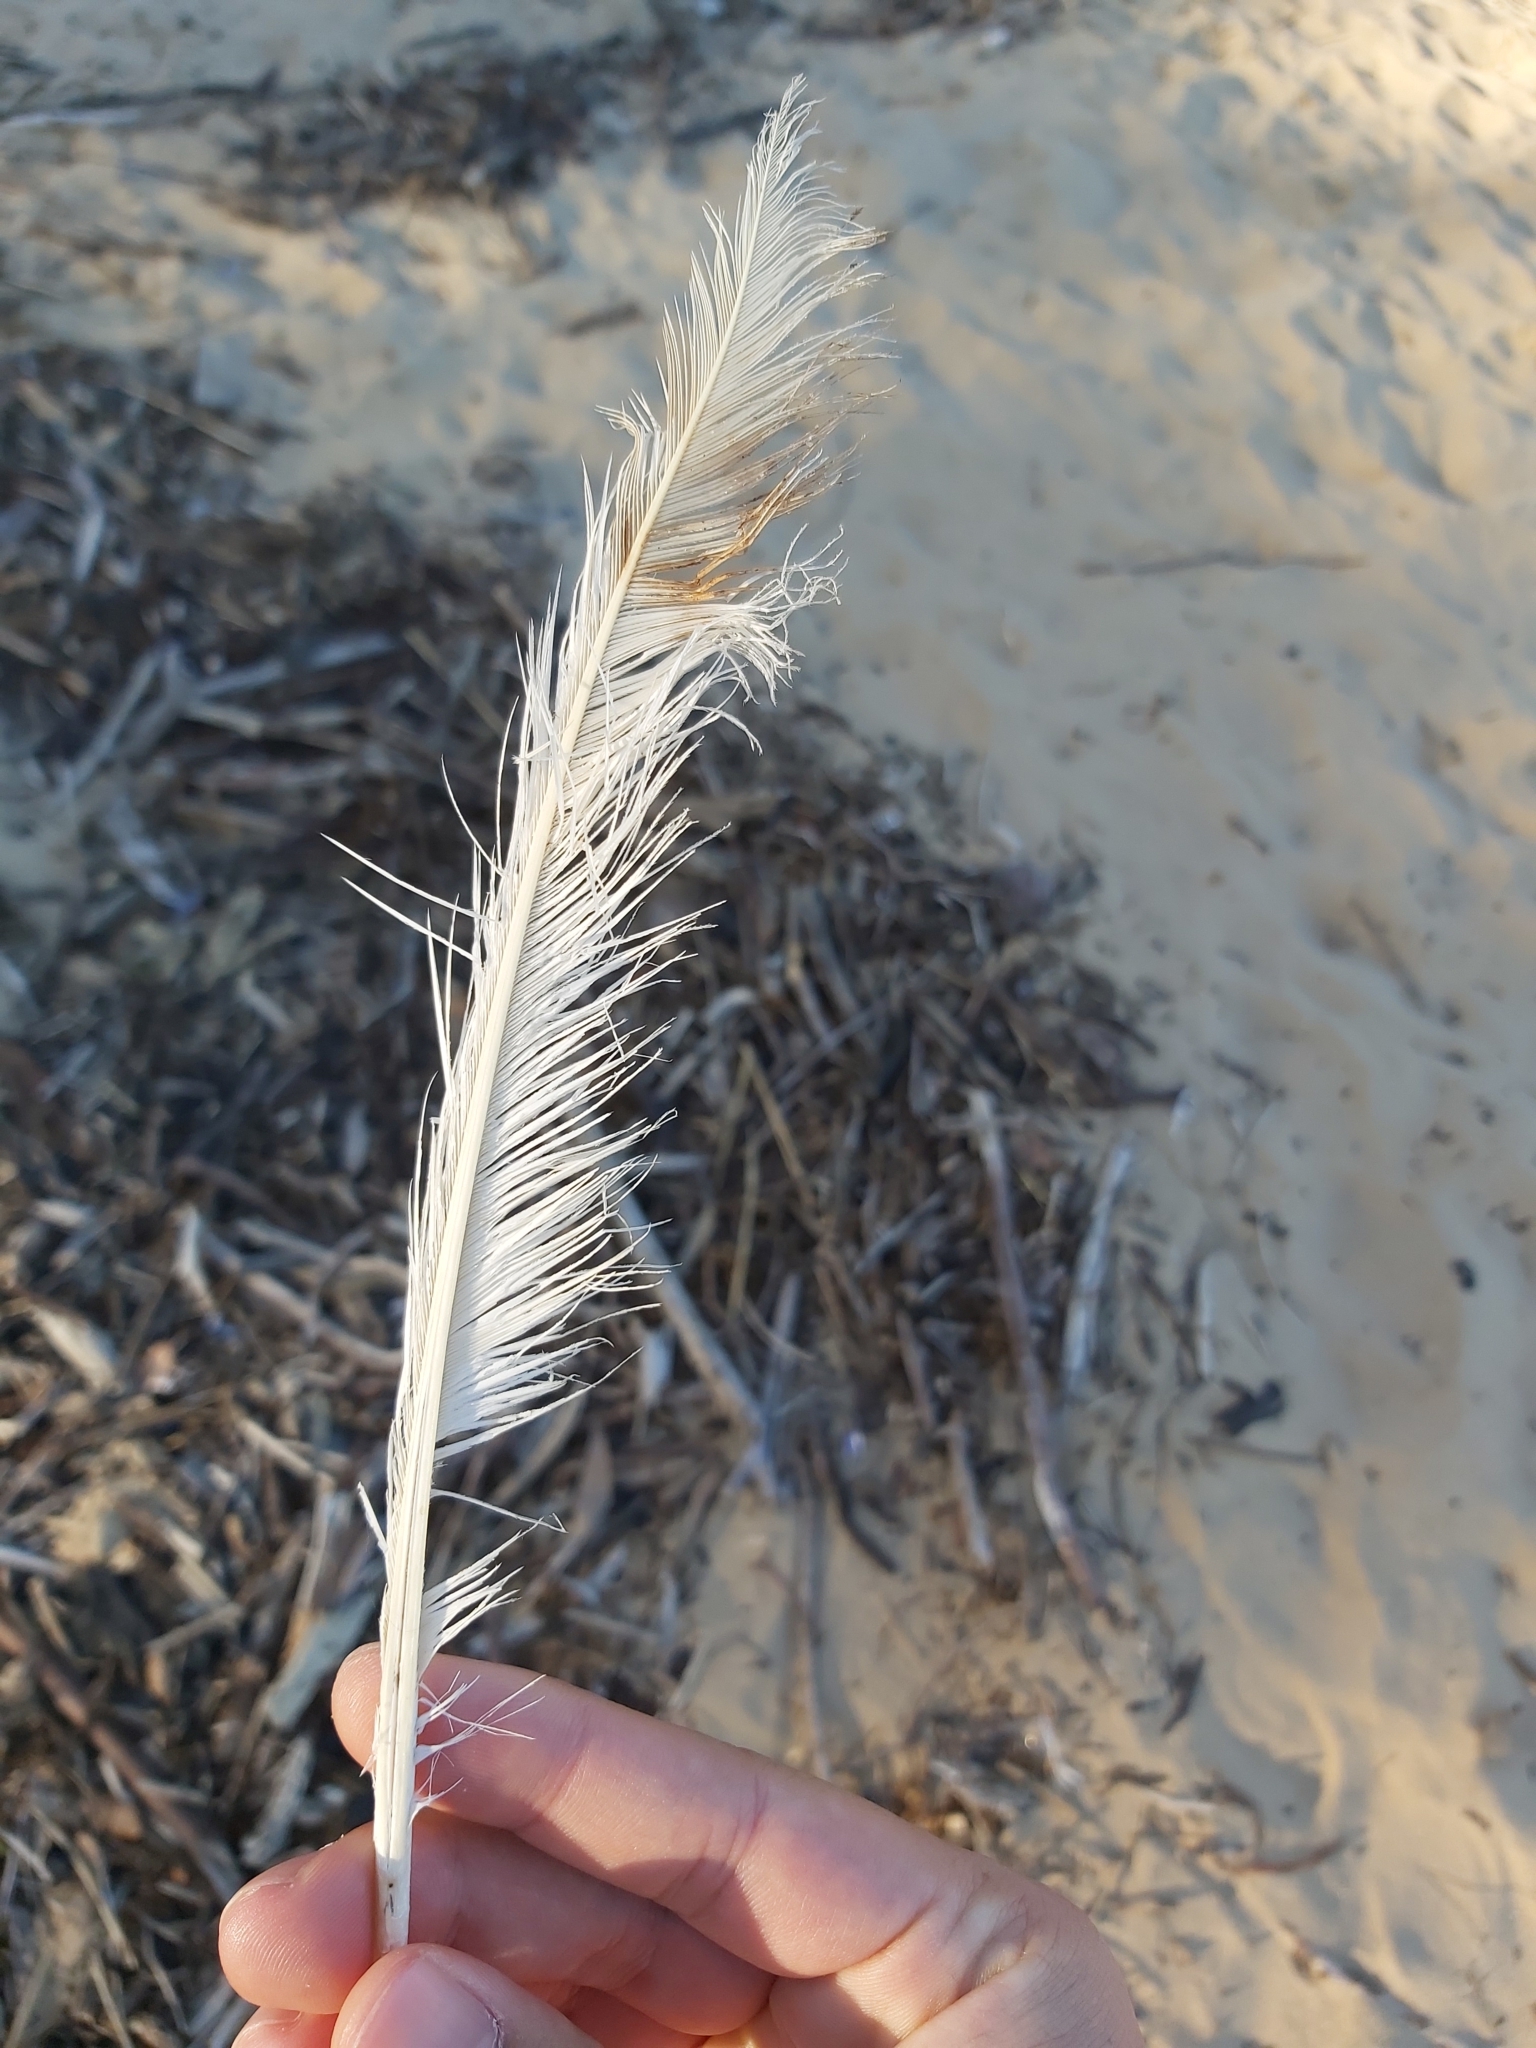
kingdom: Animalia
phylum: Chordata
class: Aves
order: Psittaciformes
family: Psittacidae
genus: Cacatua
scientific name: Cacatua galerita
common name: Sulphur-crested cockatoo
